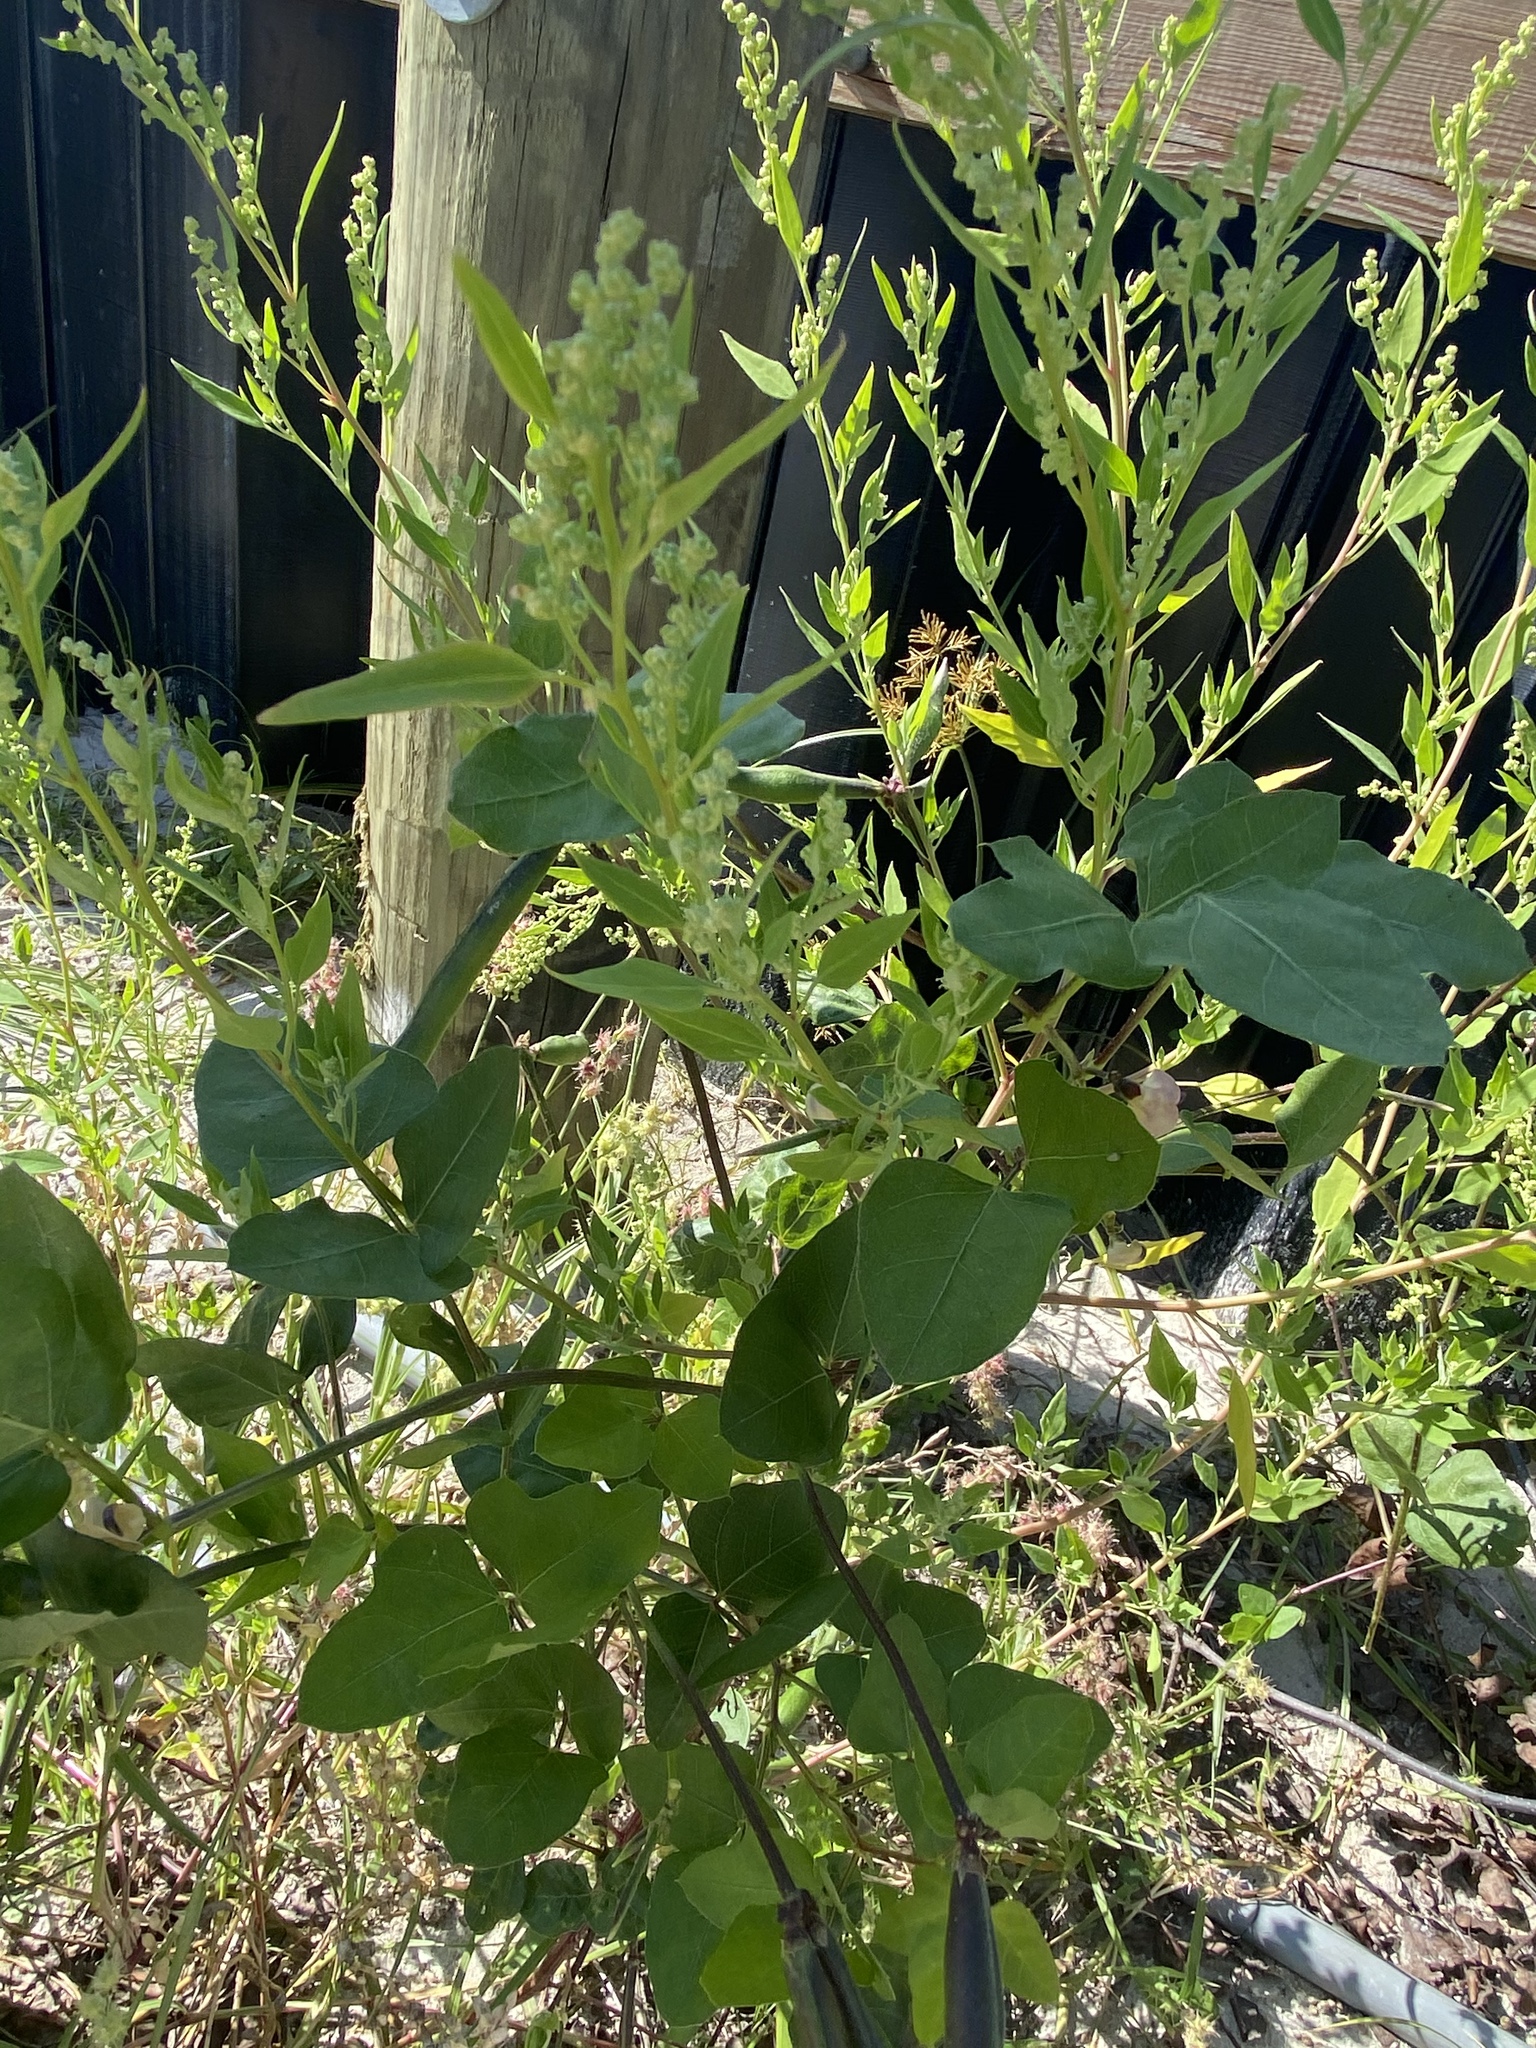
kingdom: Plantae
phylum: Tracheophyta
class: Magnoliopsida
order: Caryophyllales
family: Amaranthaceae
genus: Chenopodium
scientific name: Chenopodium album
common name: Fat-hen
